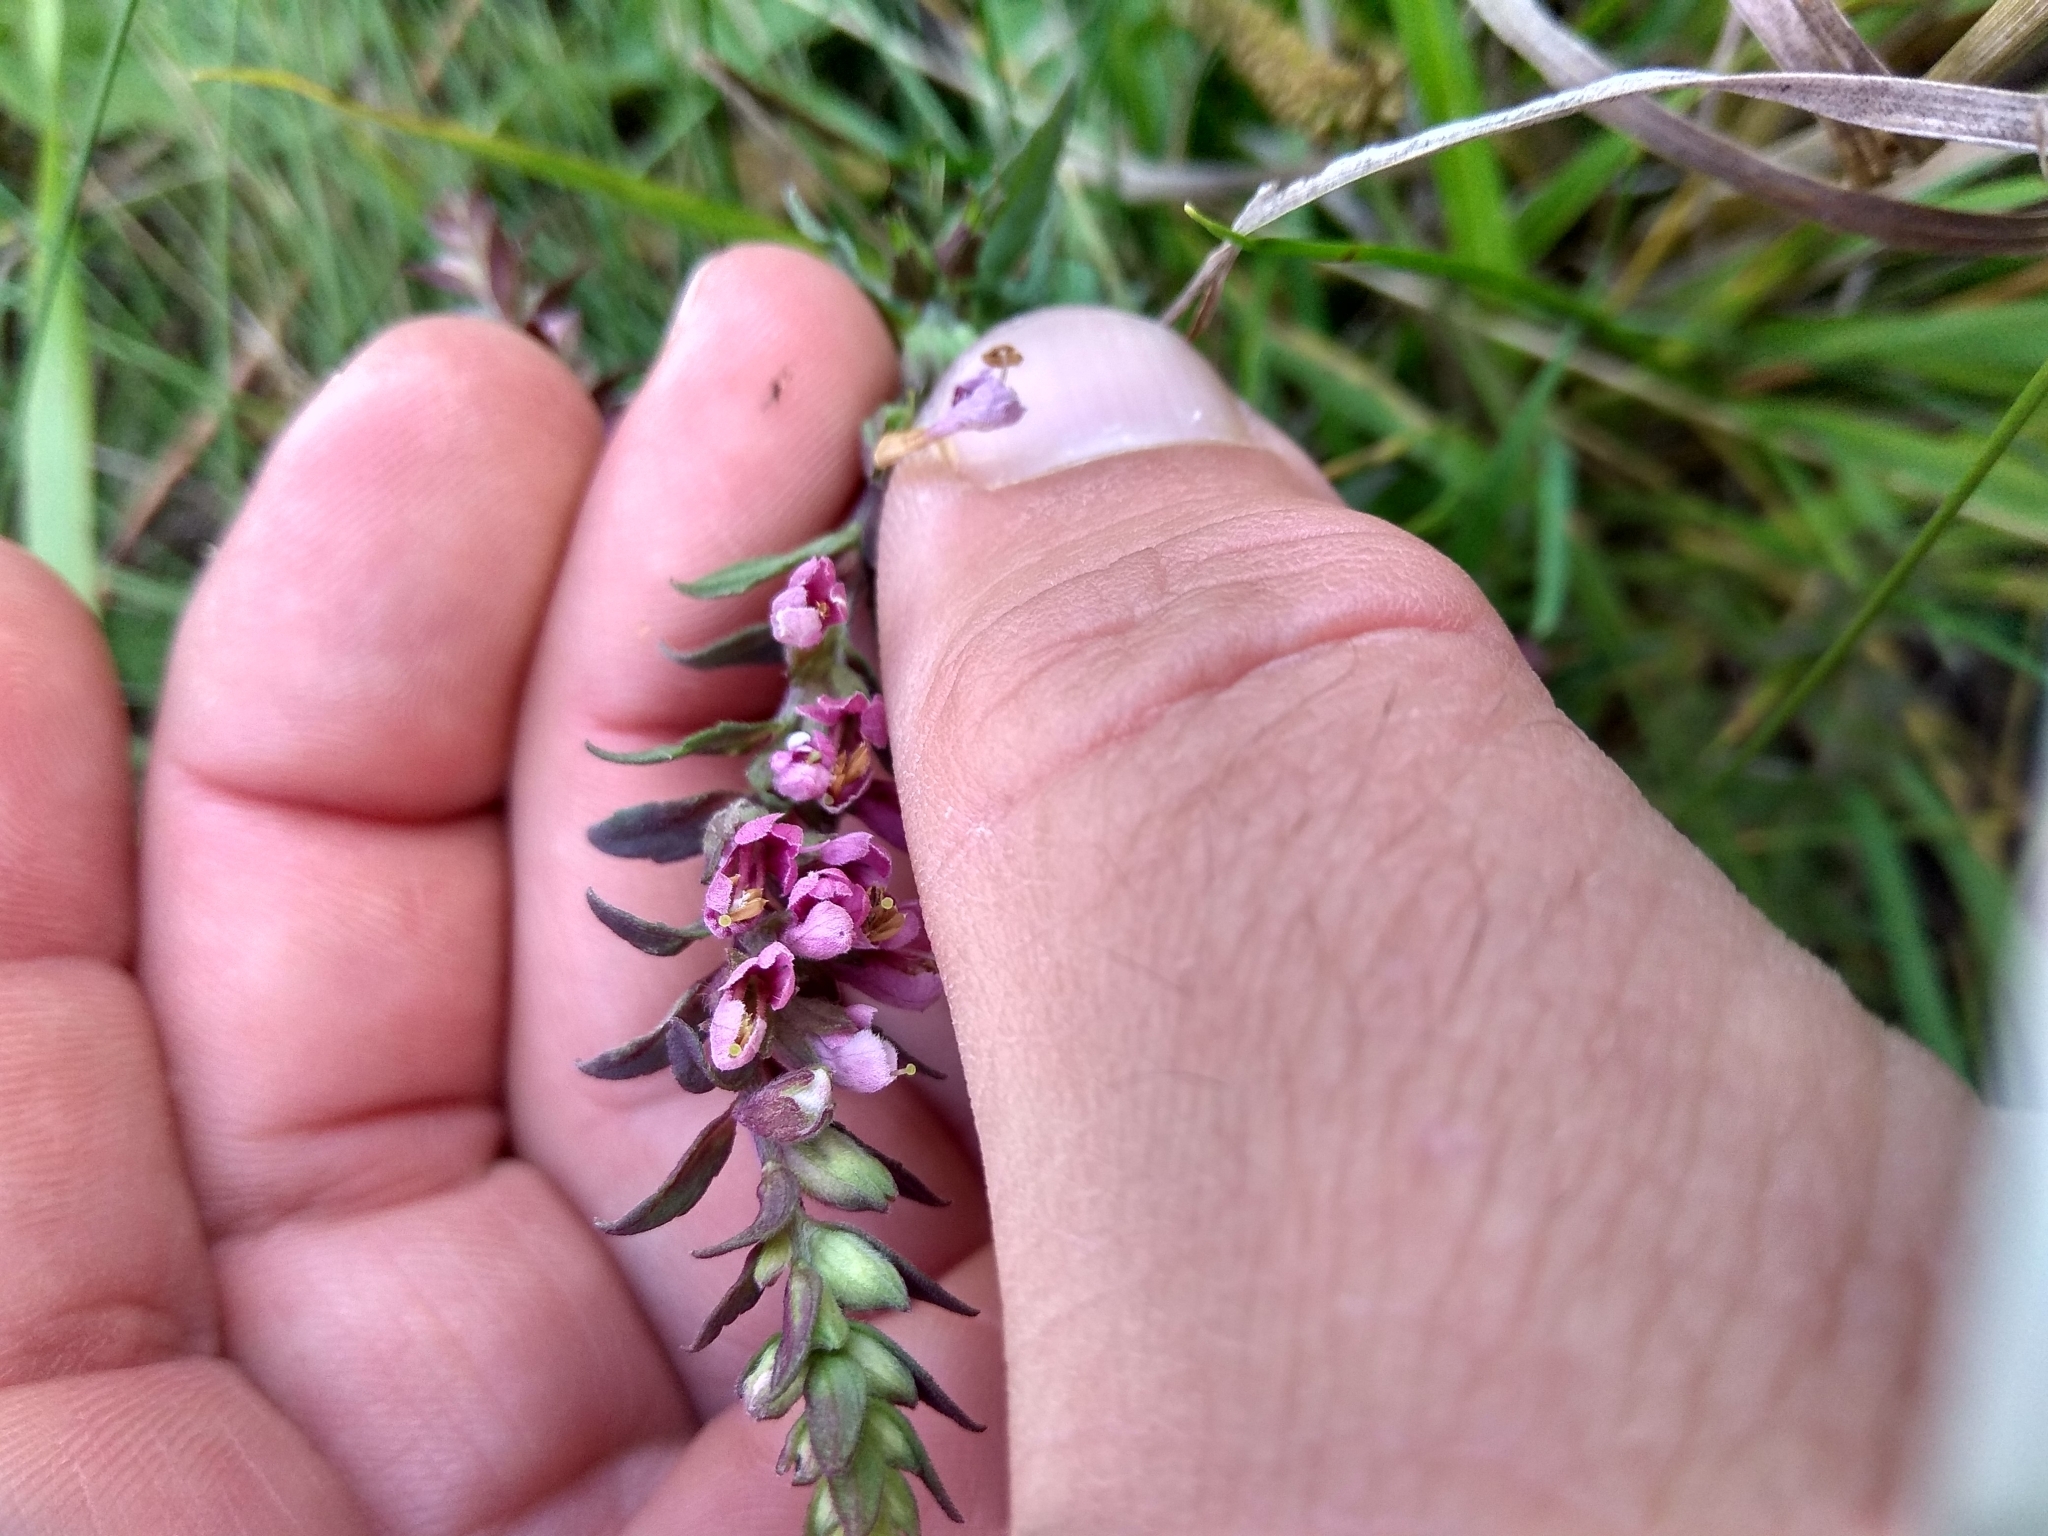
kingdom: Plantae
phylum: Tracheophyta
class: Magnoliopsida
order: Lamiales
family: Orobanchaceae
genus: Odontites
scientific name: Odontites vulgaris
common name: Broomrape
